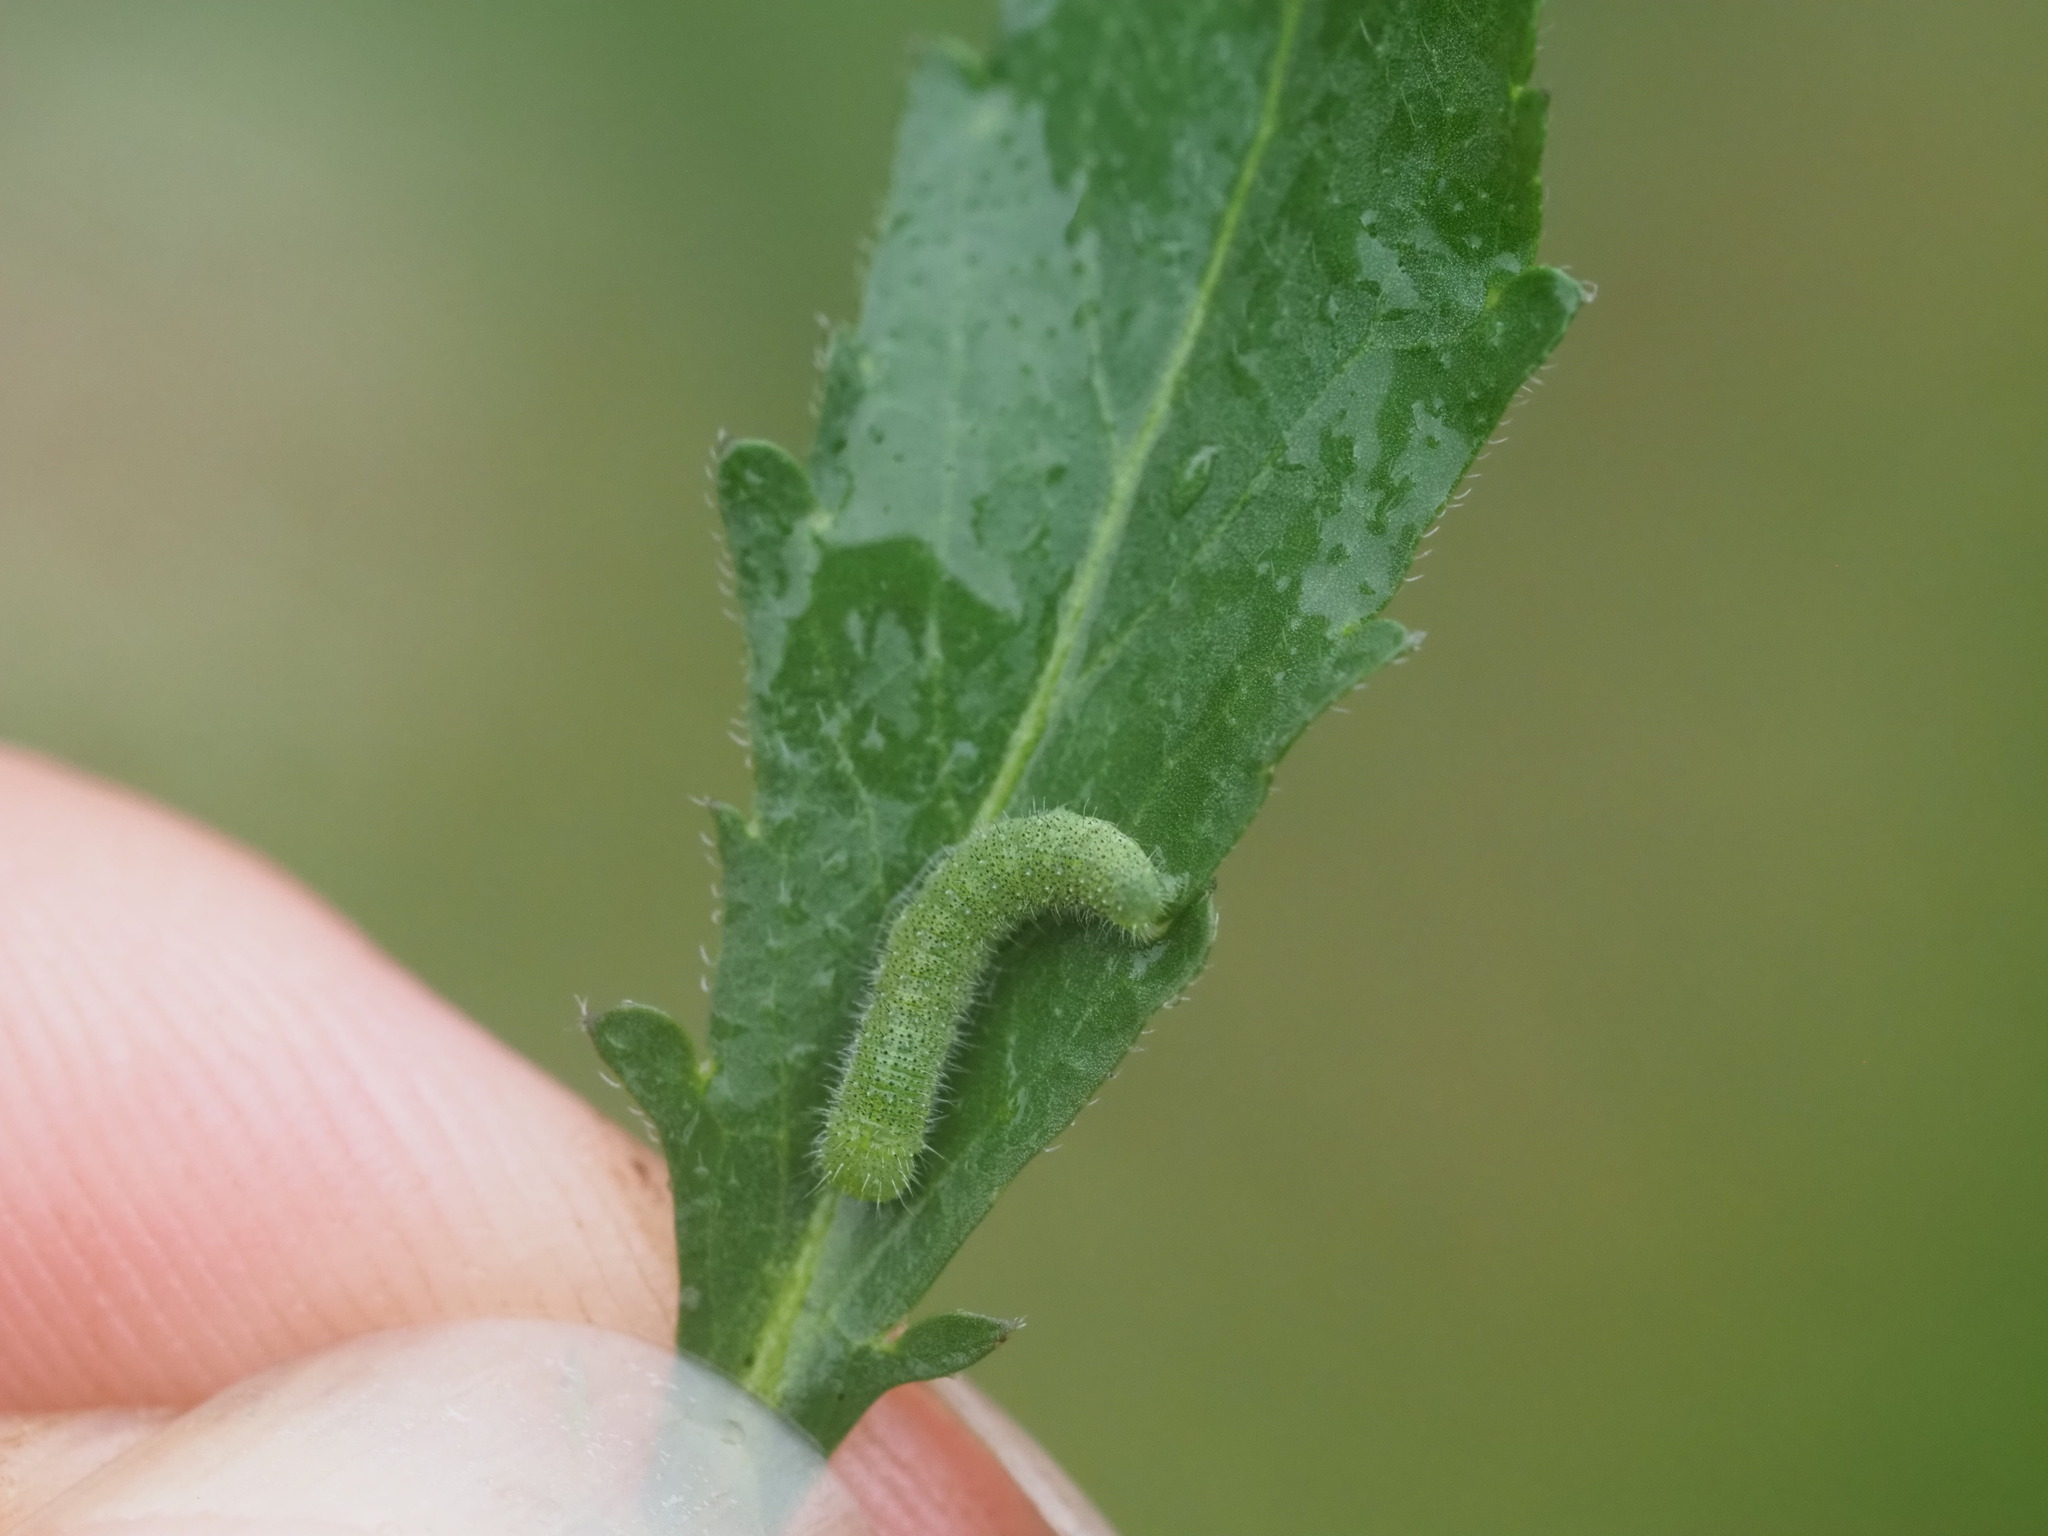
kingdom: Animalia
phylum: Arthropoda
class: Insecta
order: Lepidoptera
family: Pieridae
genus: Pieris
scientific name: Pieris rapae
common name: Small white
